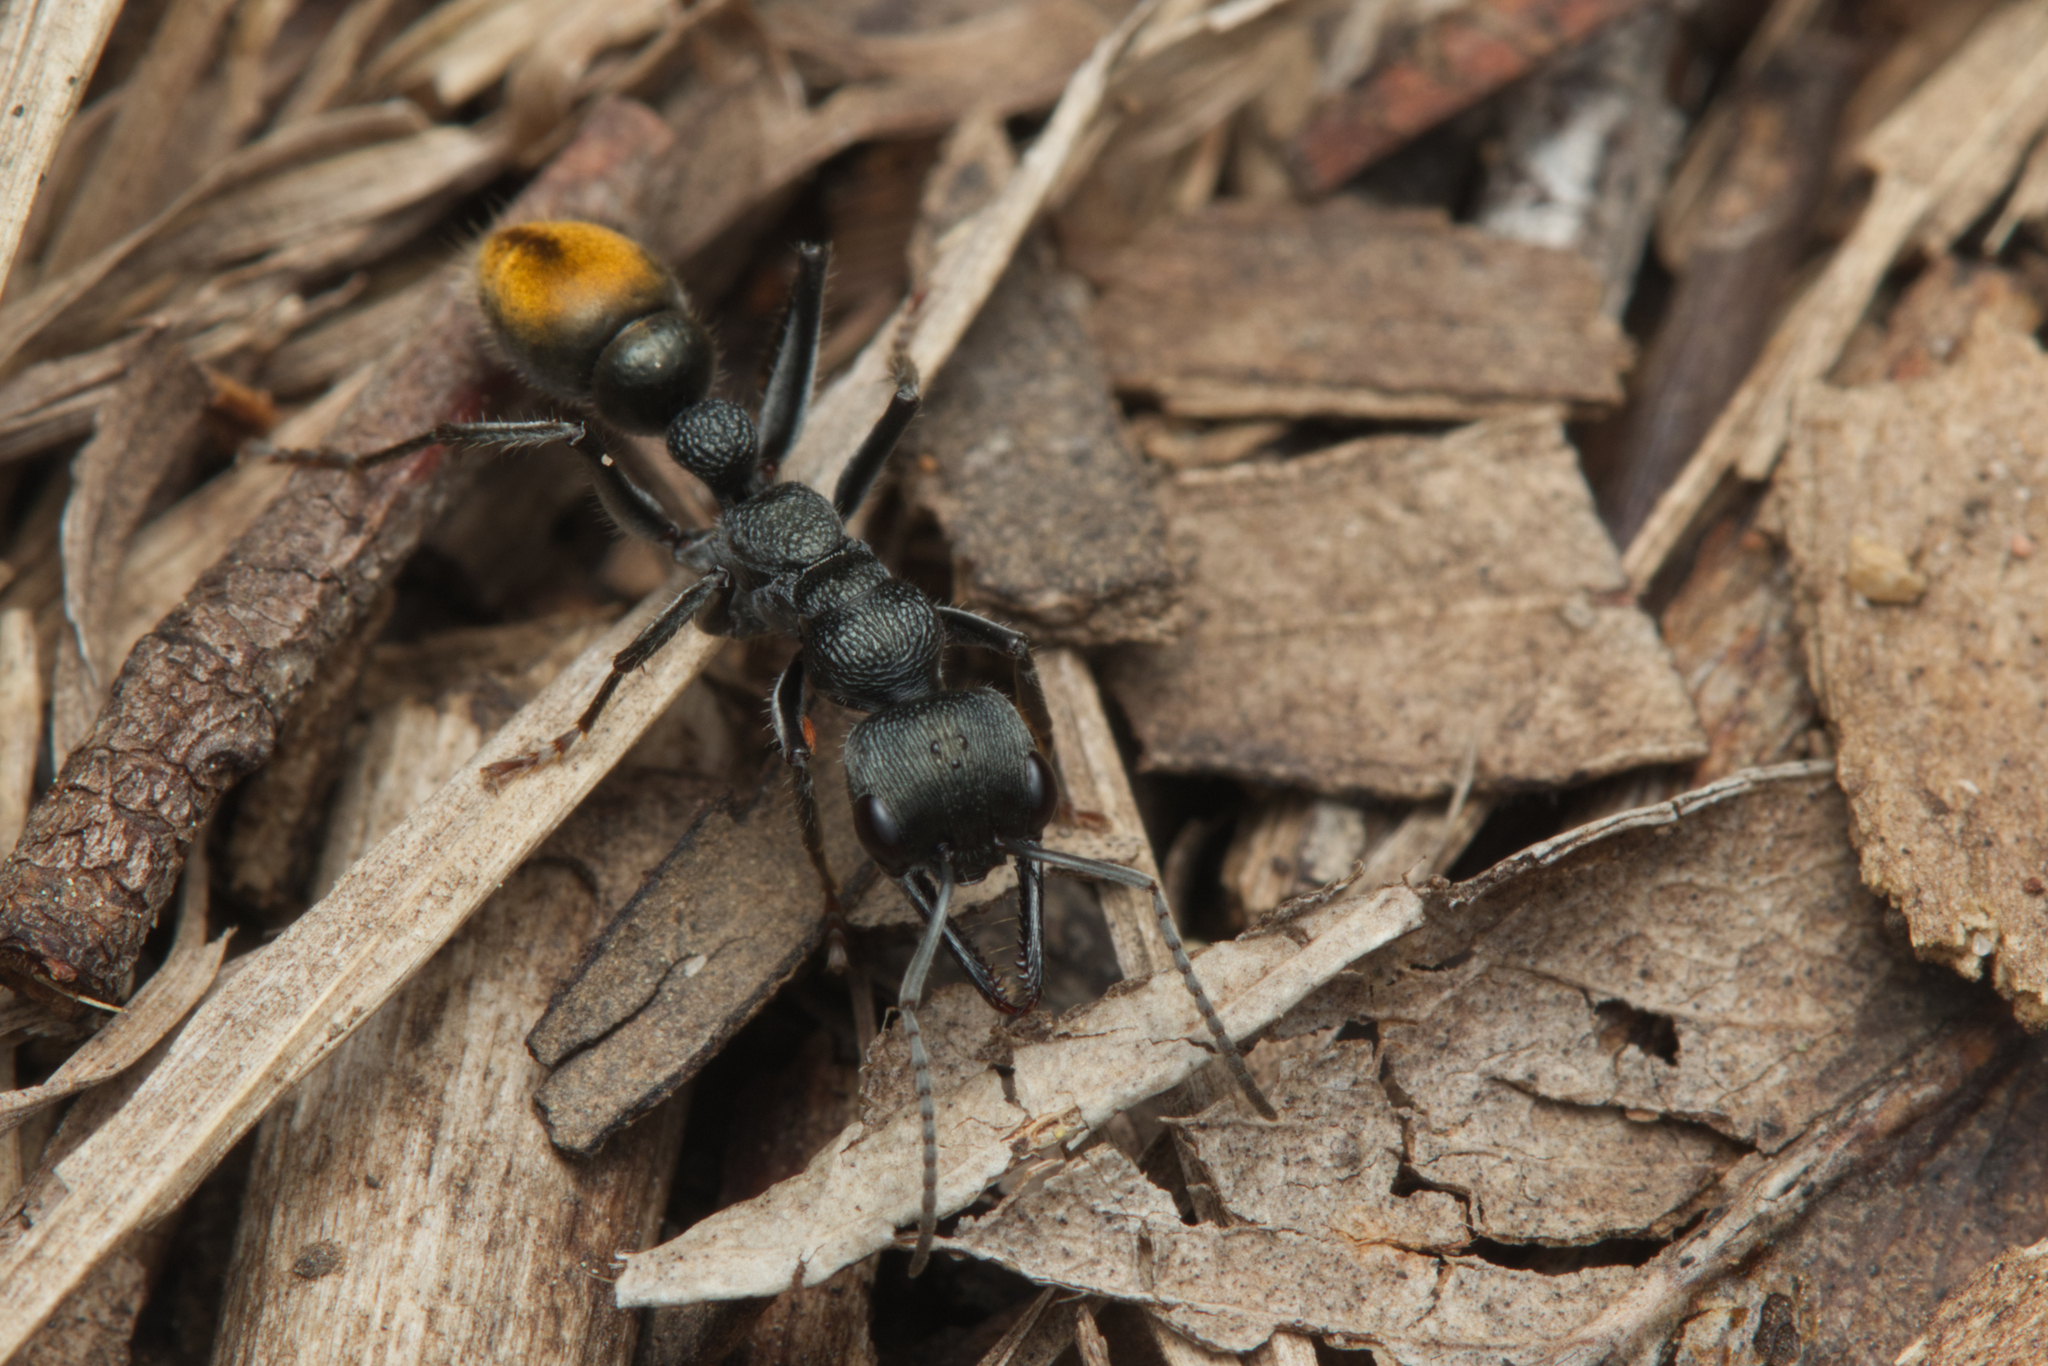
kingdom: Animalia
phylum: Arthropoda
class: Insecta
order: Hymenoptera
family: Formicidae
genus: Myrmecia
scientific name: Myrmecia gilberti
